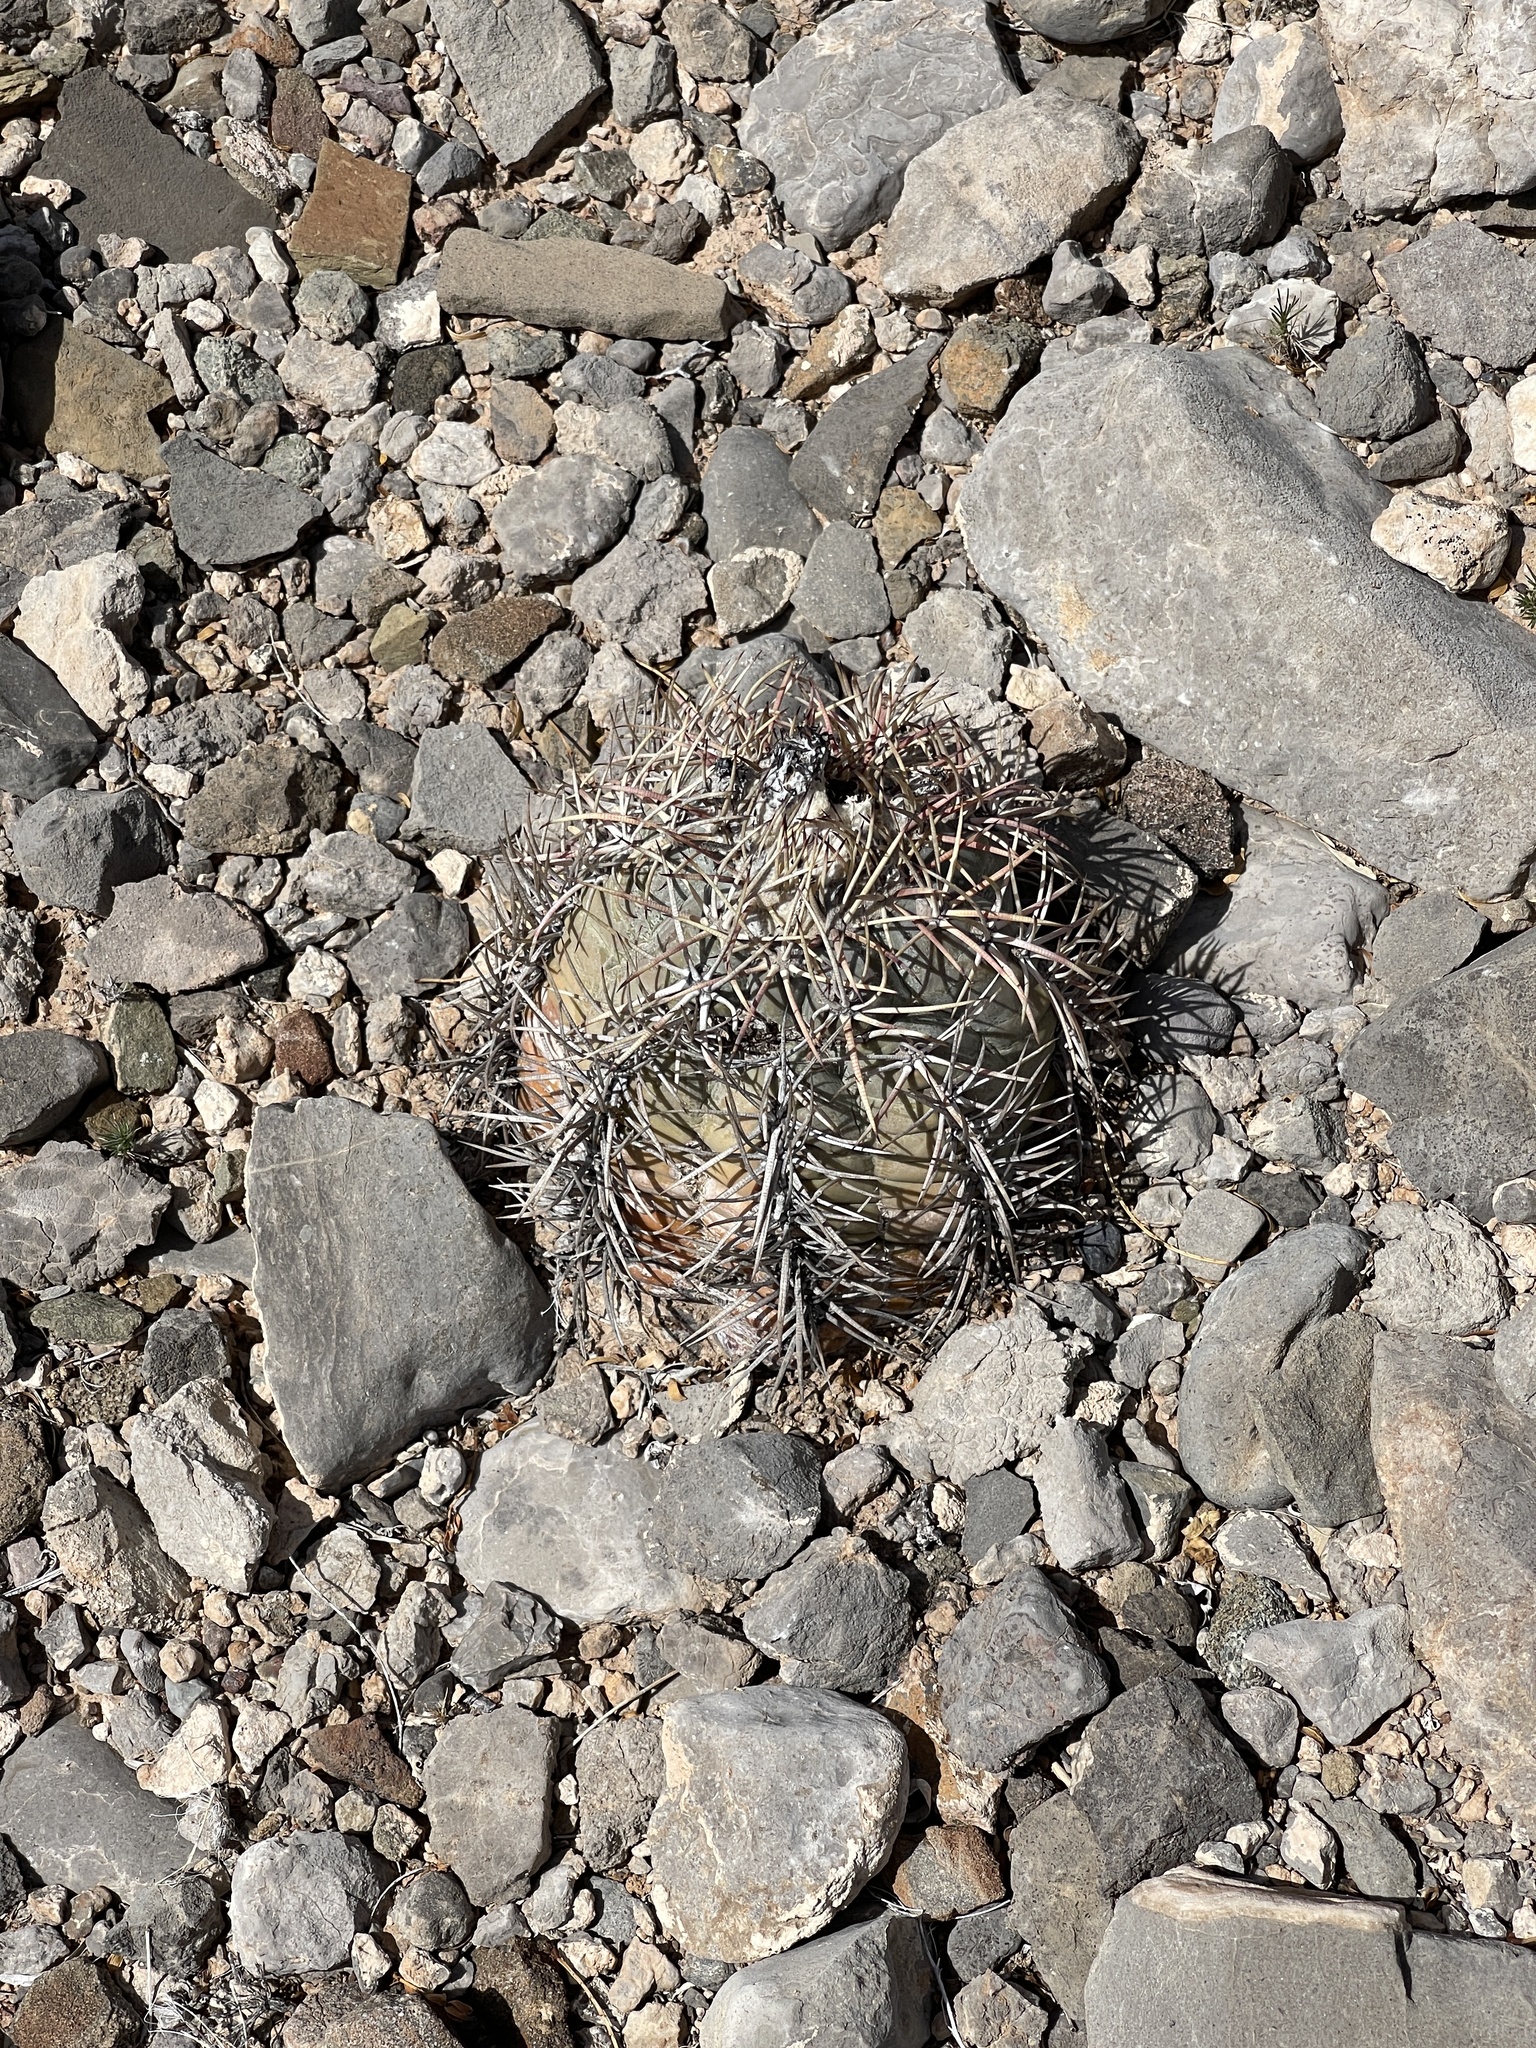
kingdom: Plantae
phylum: Tracheophyta
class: Magnoliopsida
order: Caryophyllales
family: Cactaceae
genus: Echinocactus
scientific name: Echinocactus horizonthalonius
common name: Devilshead
